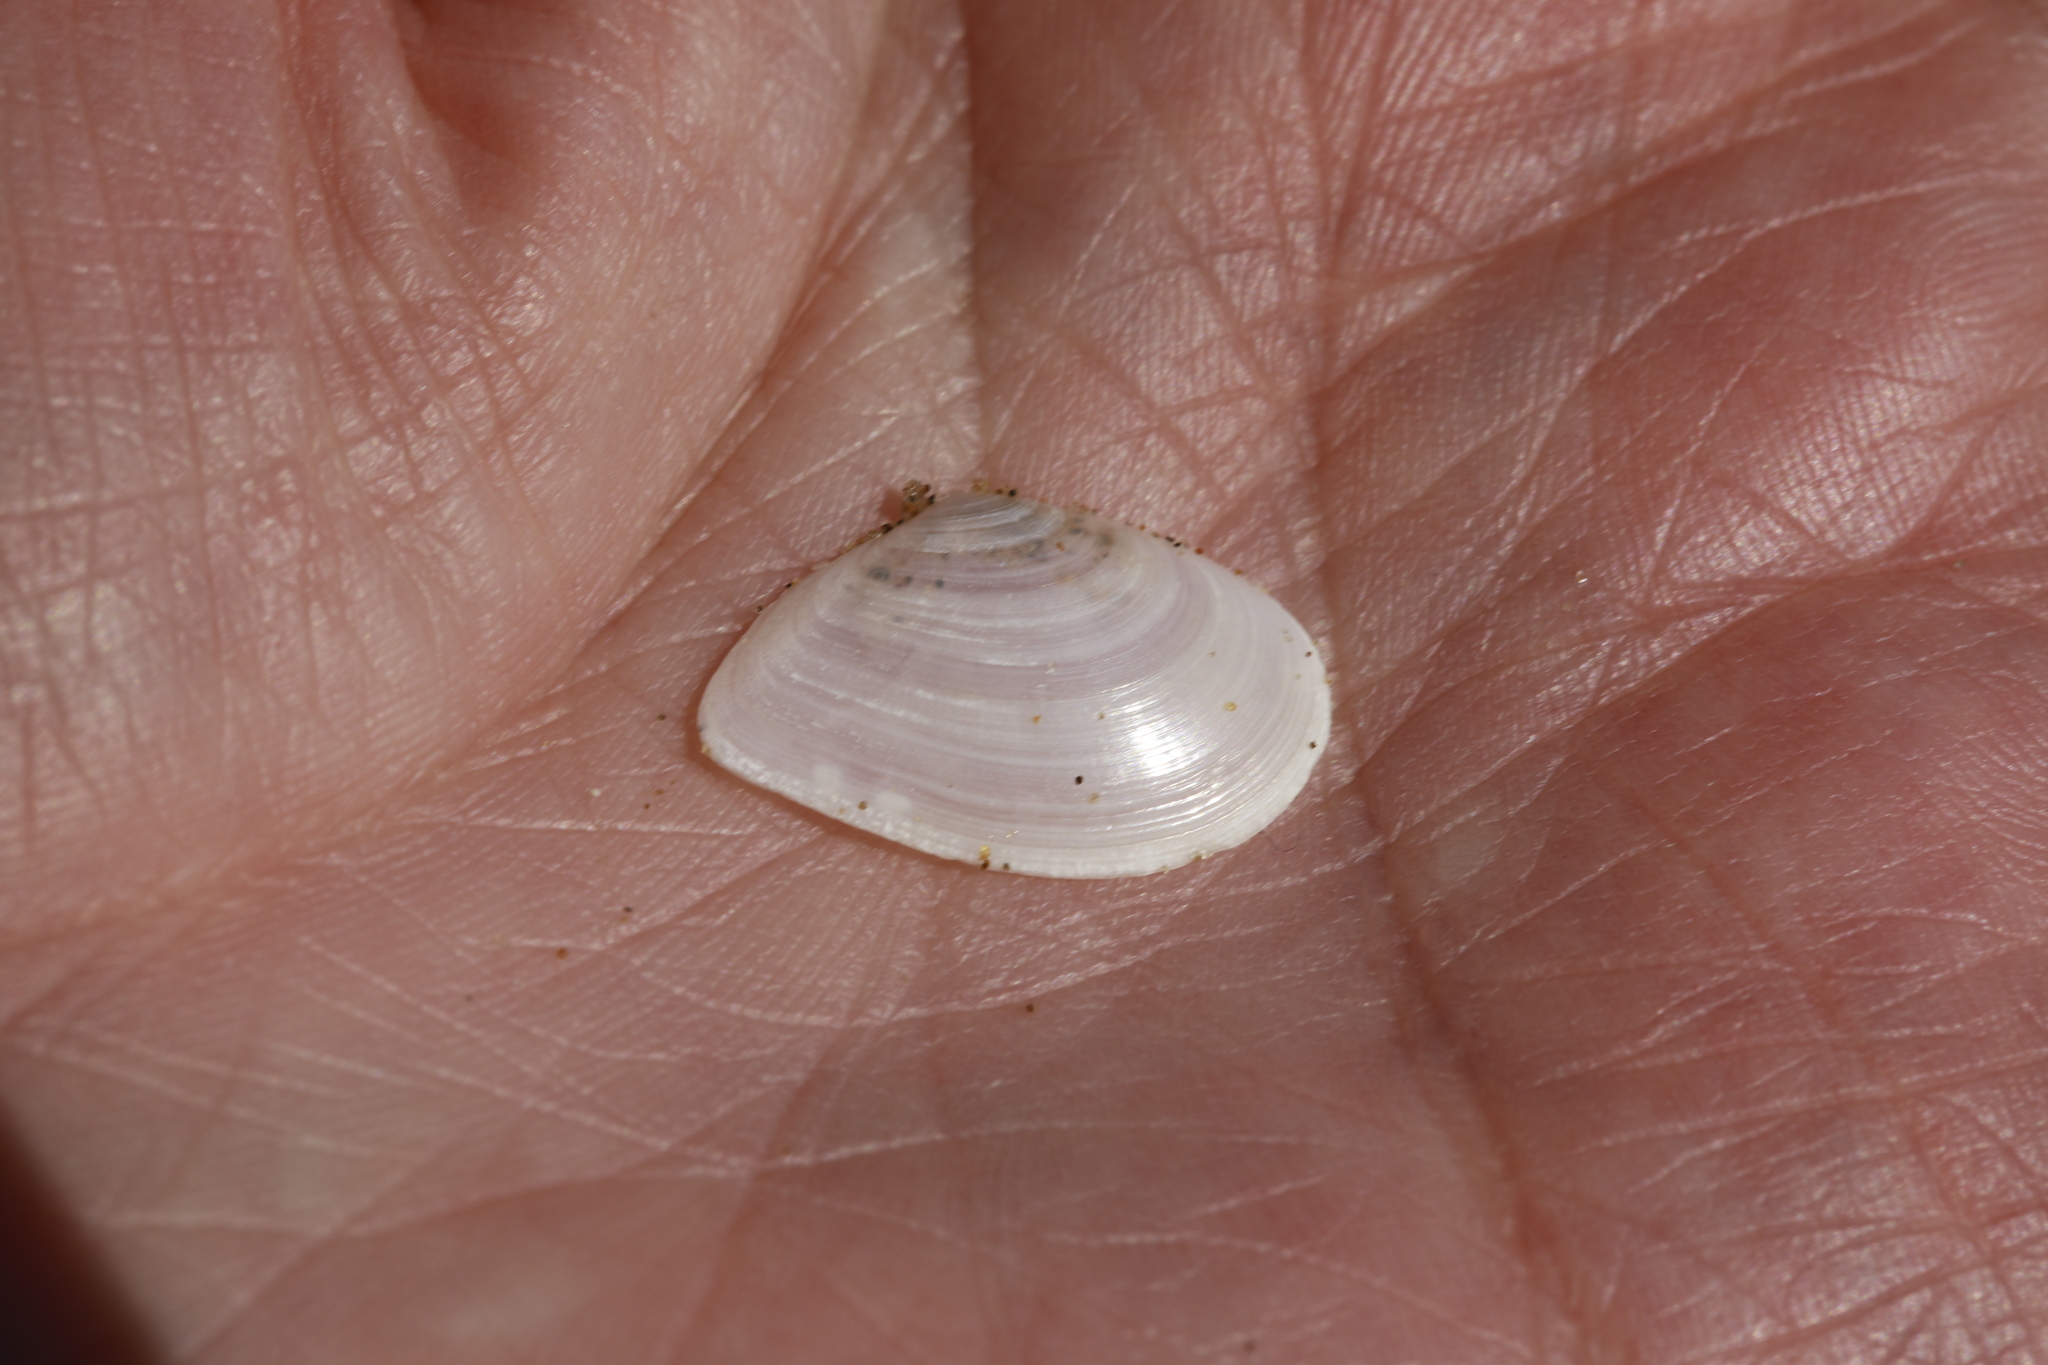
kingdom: Animalia
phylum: Mollusca
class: Bivalvia
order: Cardiida
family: Tellinidae
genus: Macomangulus
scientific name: Macomangulus tenuis
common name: Thin tellin
